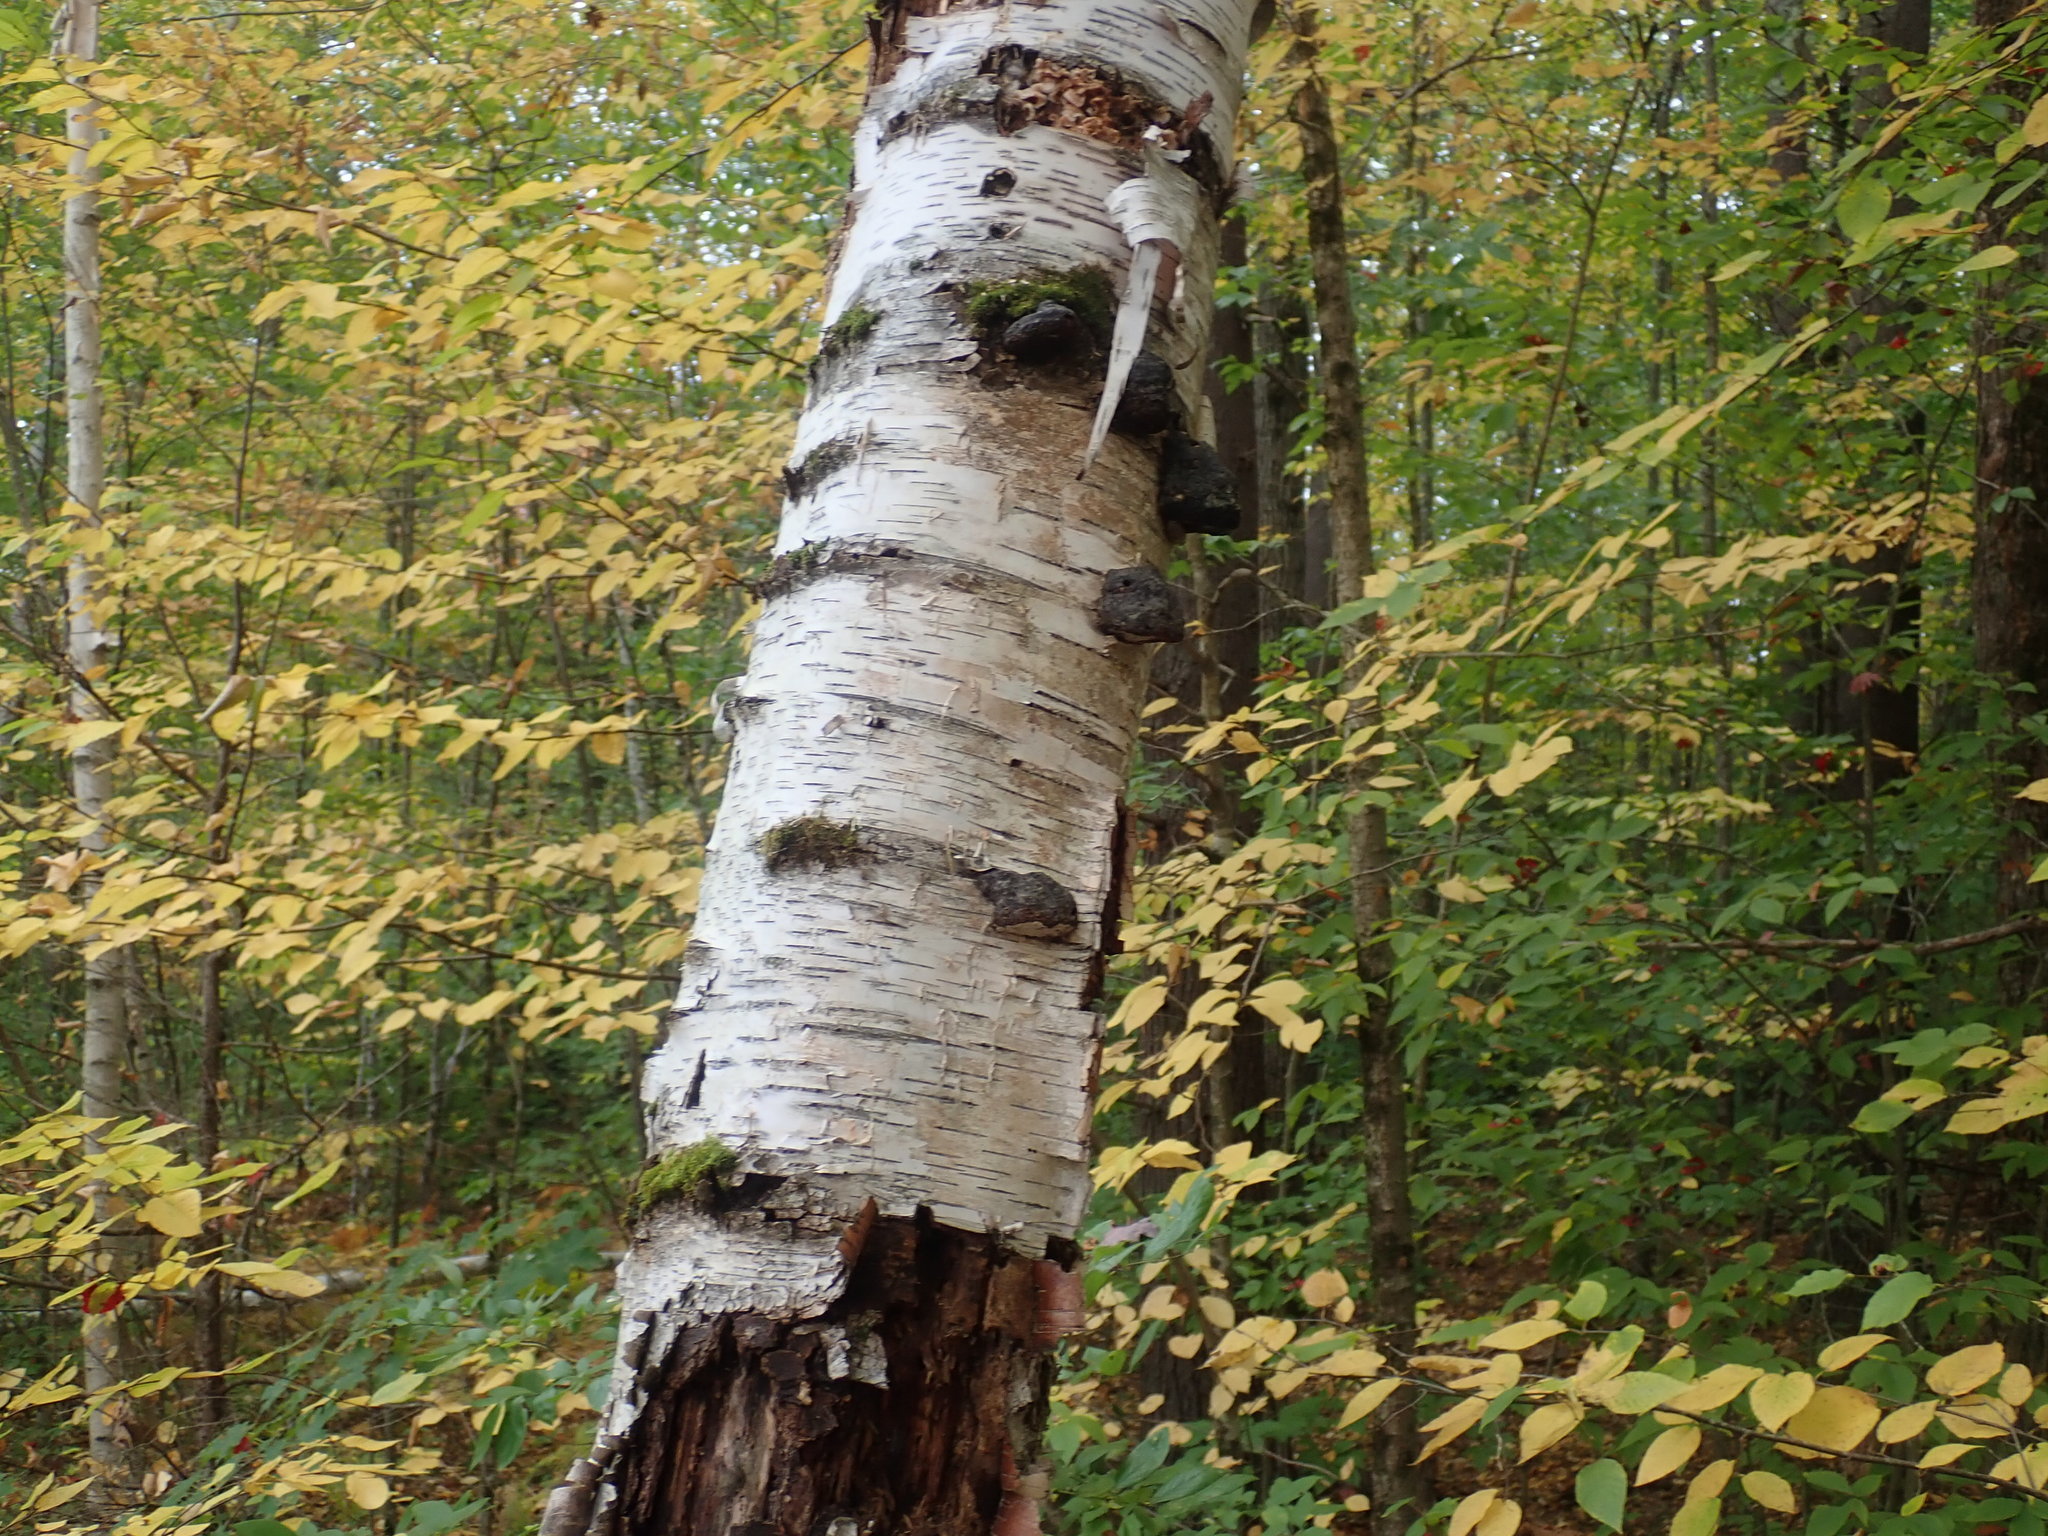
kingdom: Plantae
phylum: Tracheophyta
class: Magnoliopsida
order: Fagales
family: Betulaceae
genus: Betula
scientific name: Betula papyrifera
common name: Paper birch
